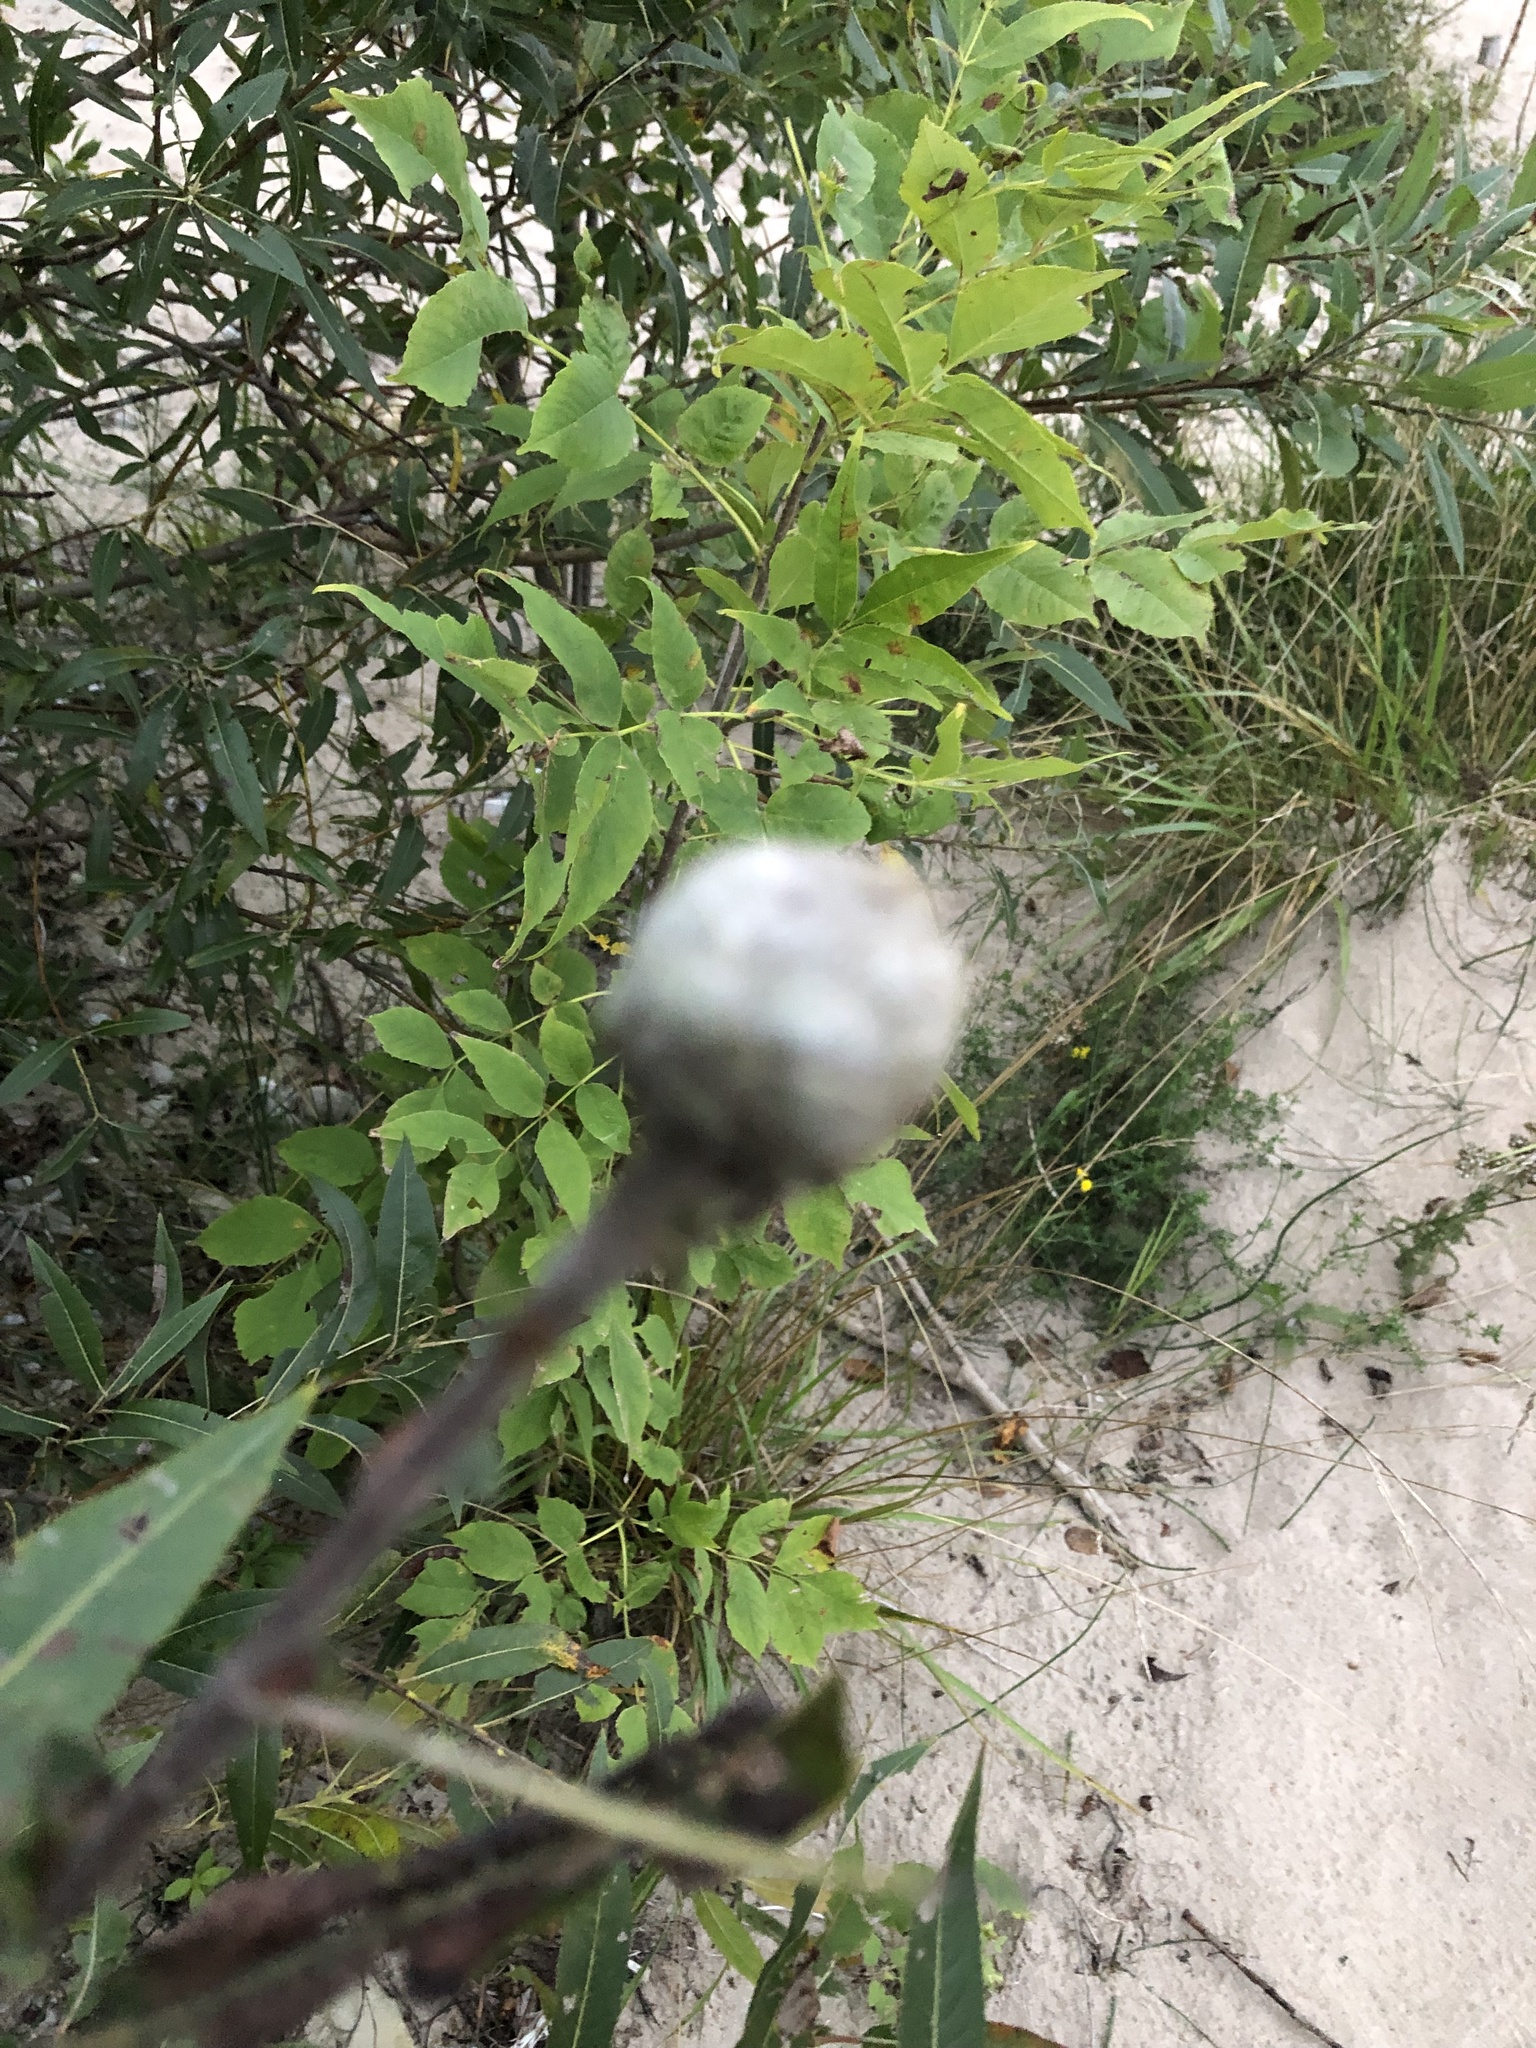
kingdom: Animalia
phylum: Arthropoda
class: Insecta
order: Diptera
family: Cecidomyiidae
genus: Rabdophaga
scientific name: Rabdophaga strobiloides
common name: Willow pinecone gall midge
